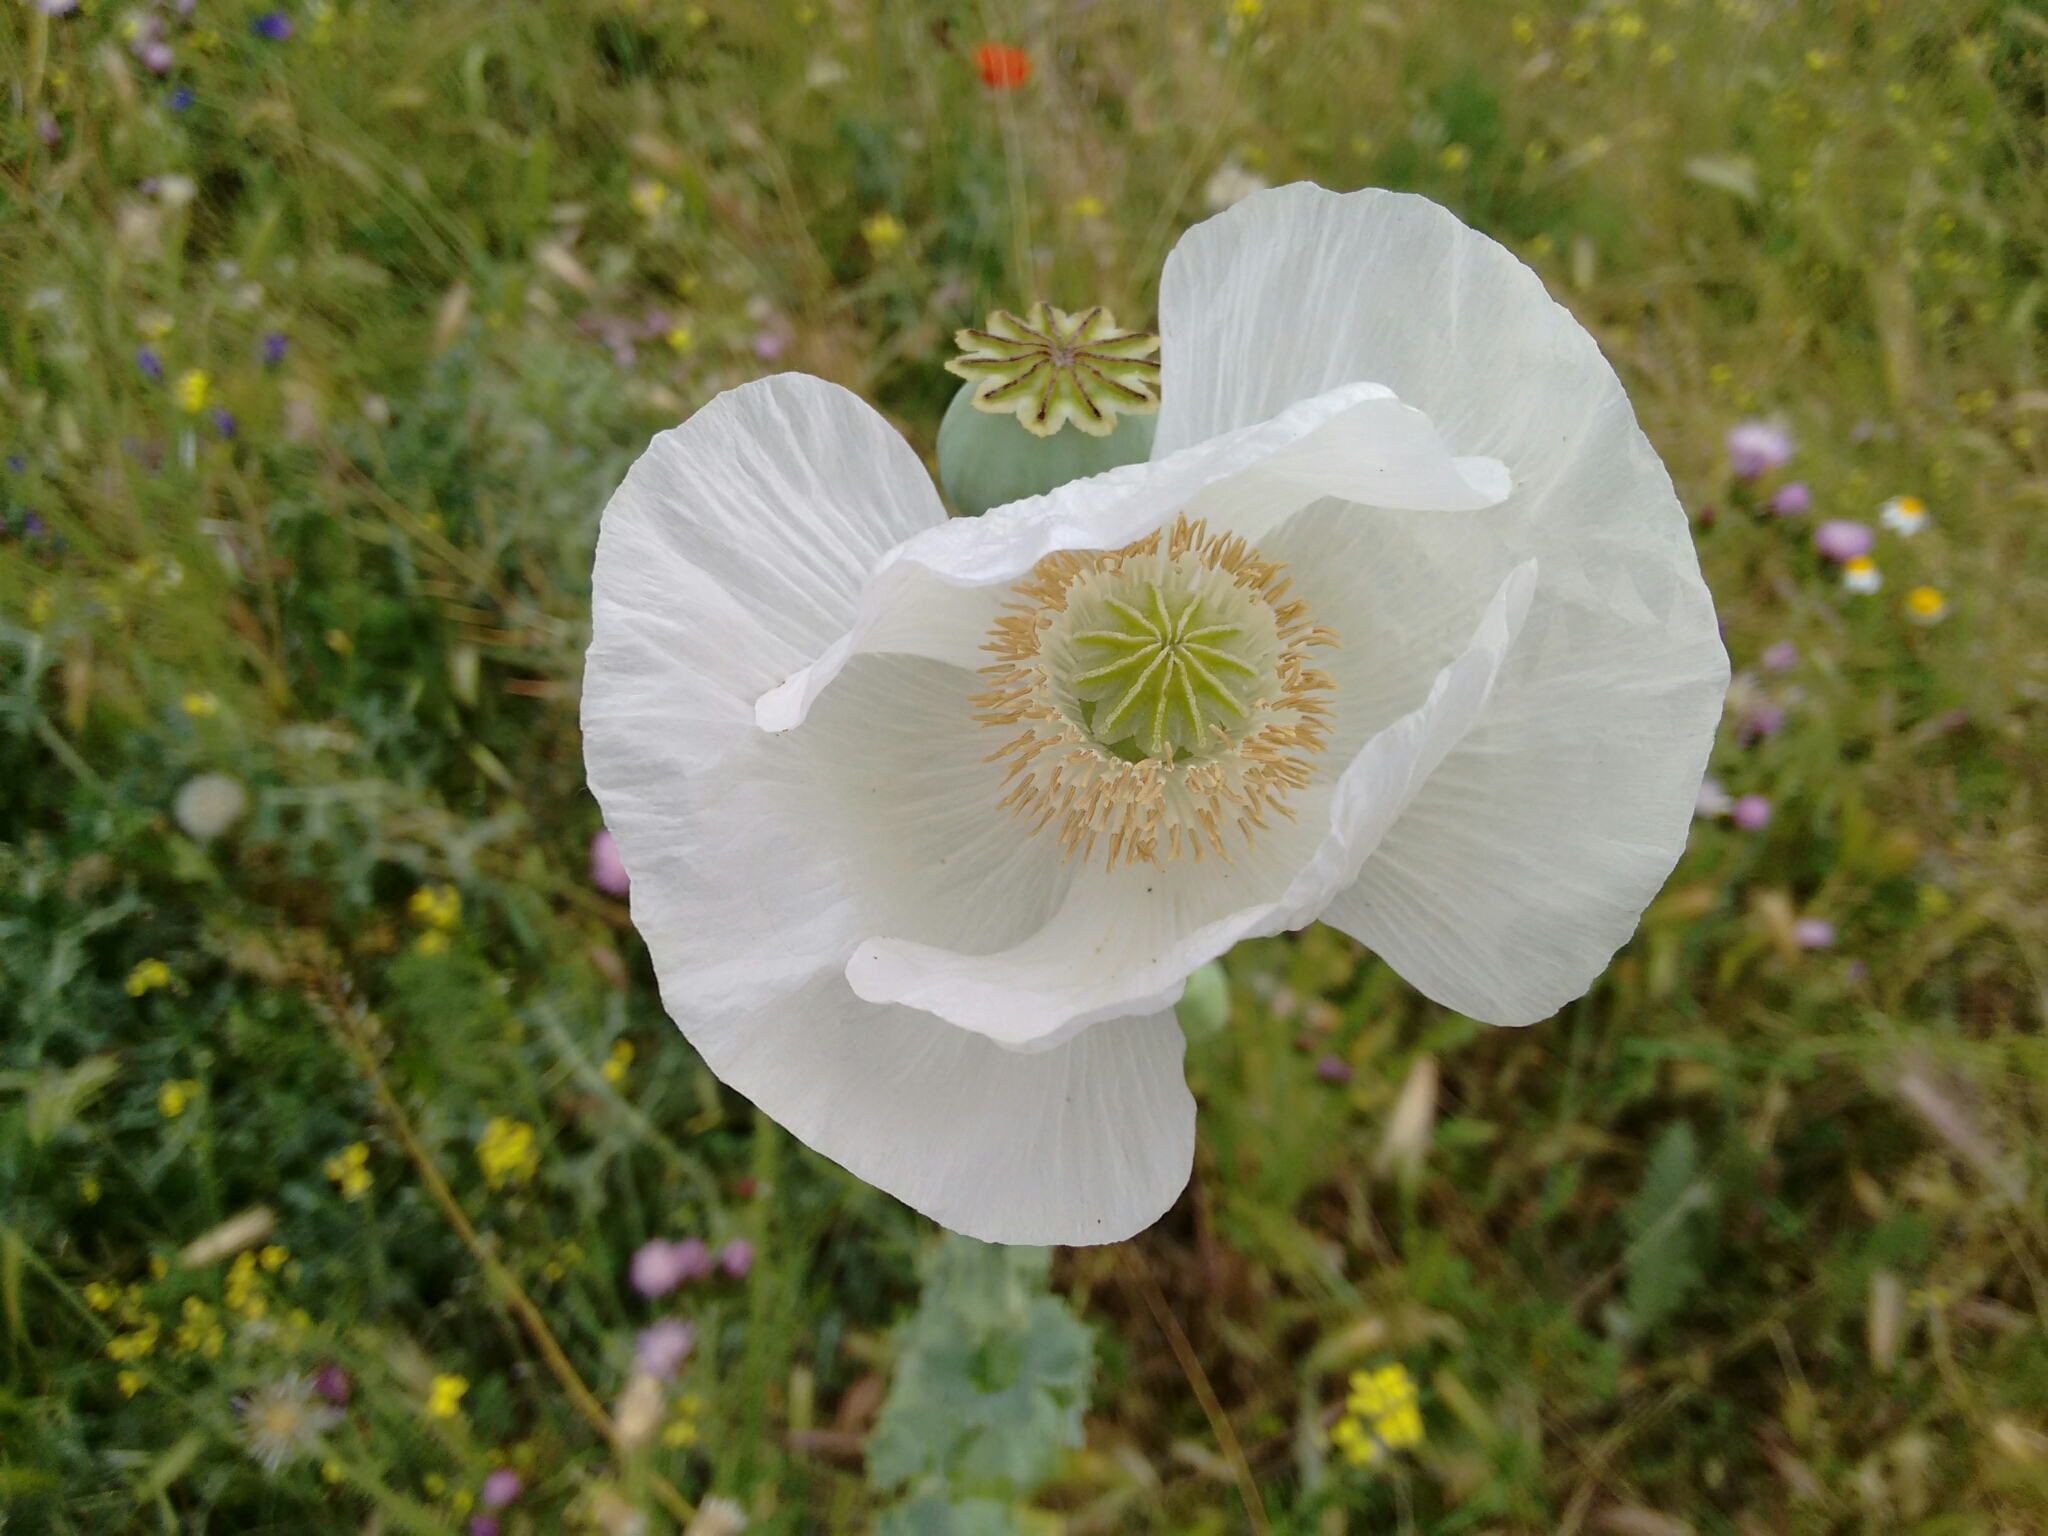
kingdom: Plantae
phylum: Tracheophyta
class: Magnoliopsida
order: Ranunculales
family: Papaveraceae
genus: Papaver
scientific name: Papaver somniferum
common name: Opium poppy
